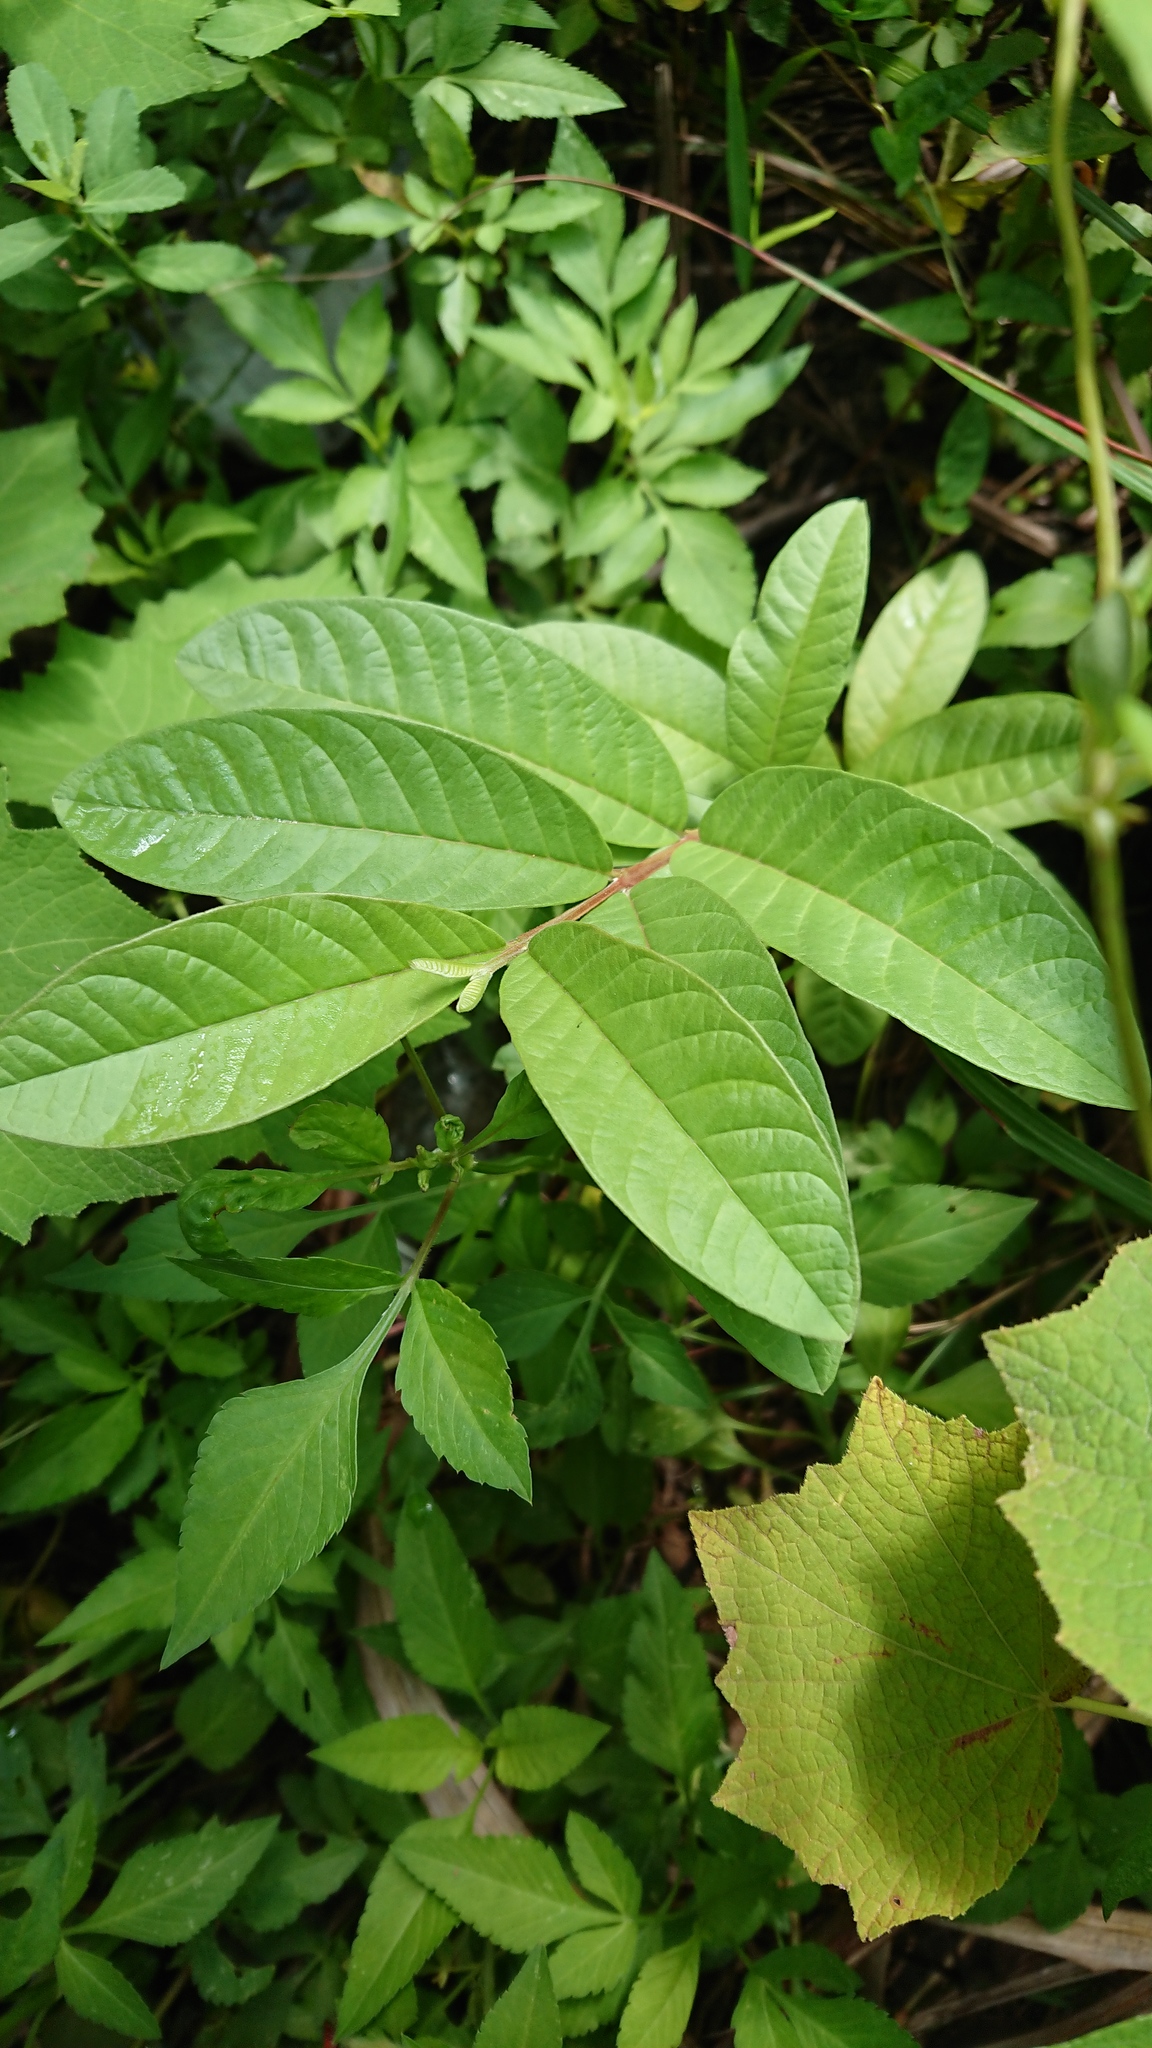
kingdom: Plantae
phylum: Tracheophyta
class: Magnoliopsida
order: Myrtales
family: Myrtaceae
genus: Psidium
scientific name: Psidium guajava
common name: Guava
